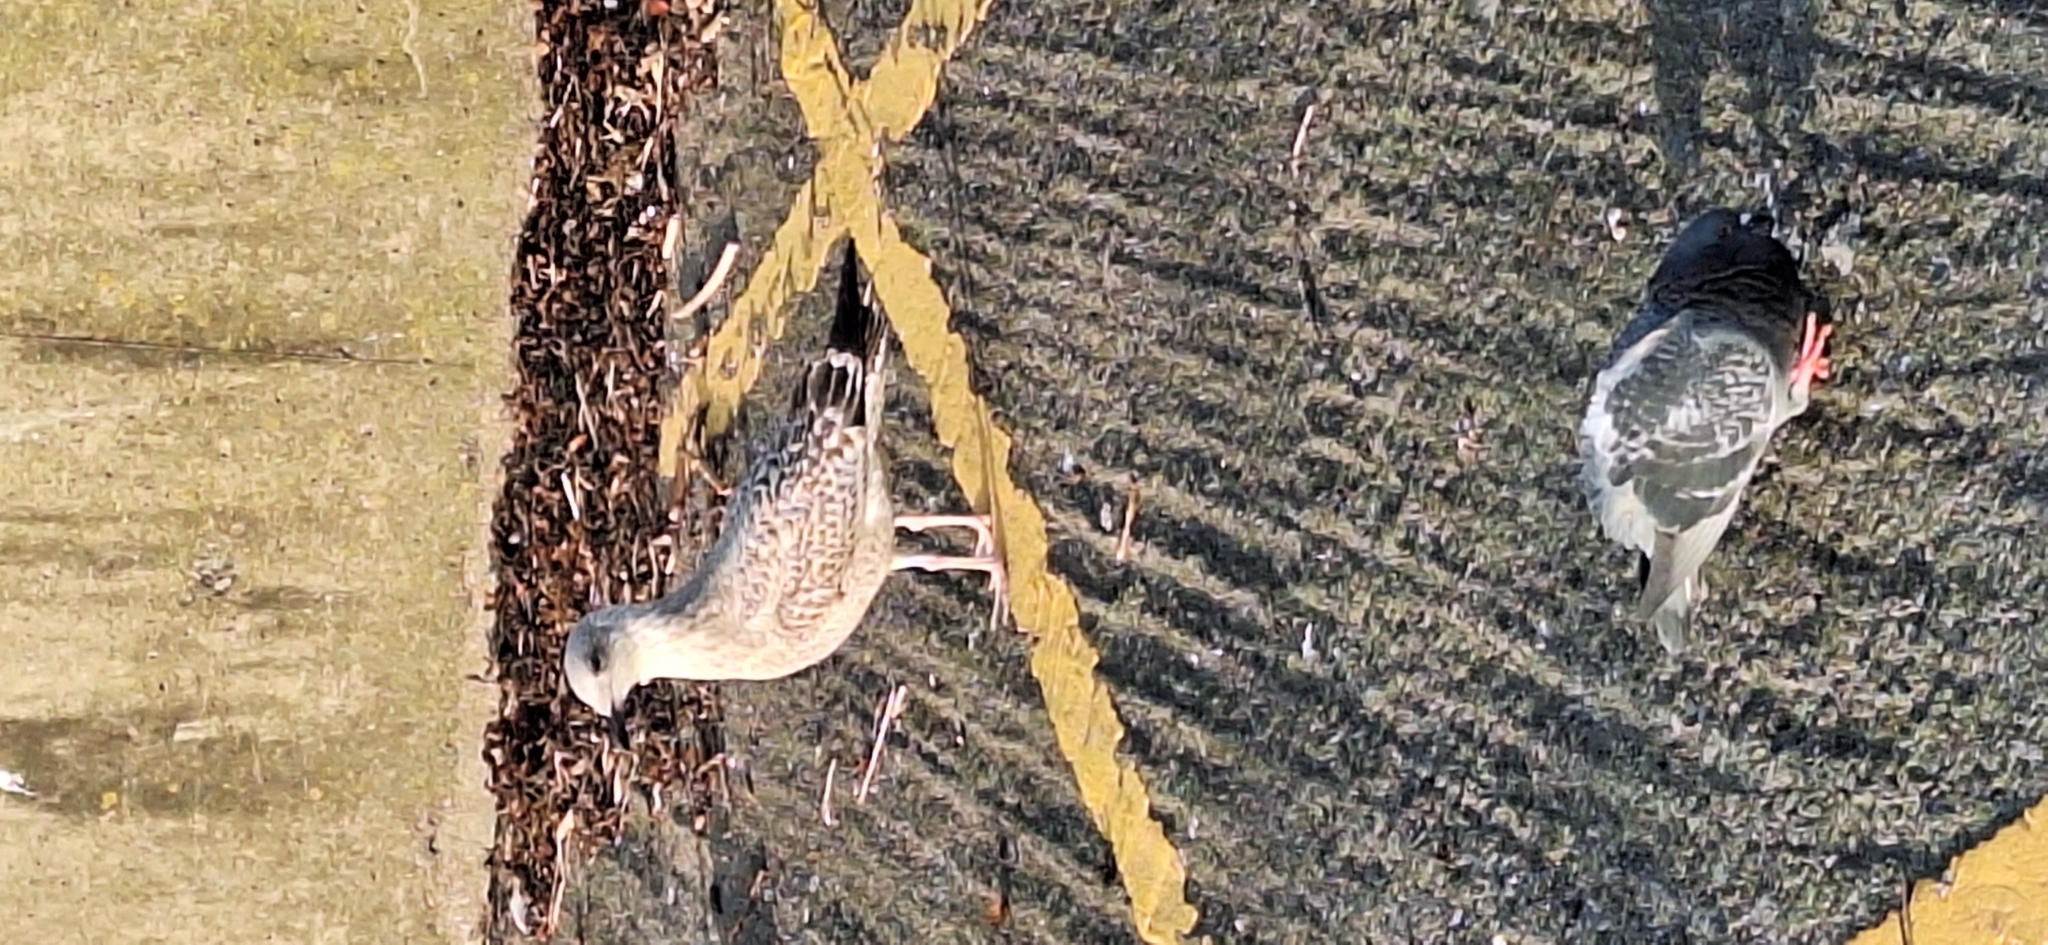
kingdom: Animalia
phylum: Chordata
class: Aves
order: Charadriiformes
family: Laridae
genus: Larus
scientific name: Larus argentatus
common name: Herring gull
